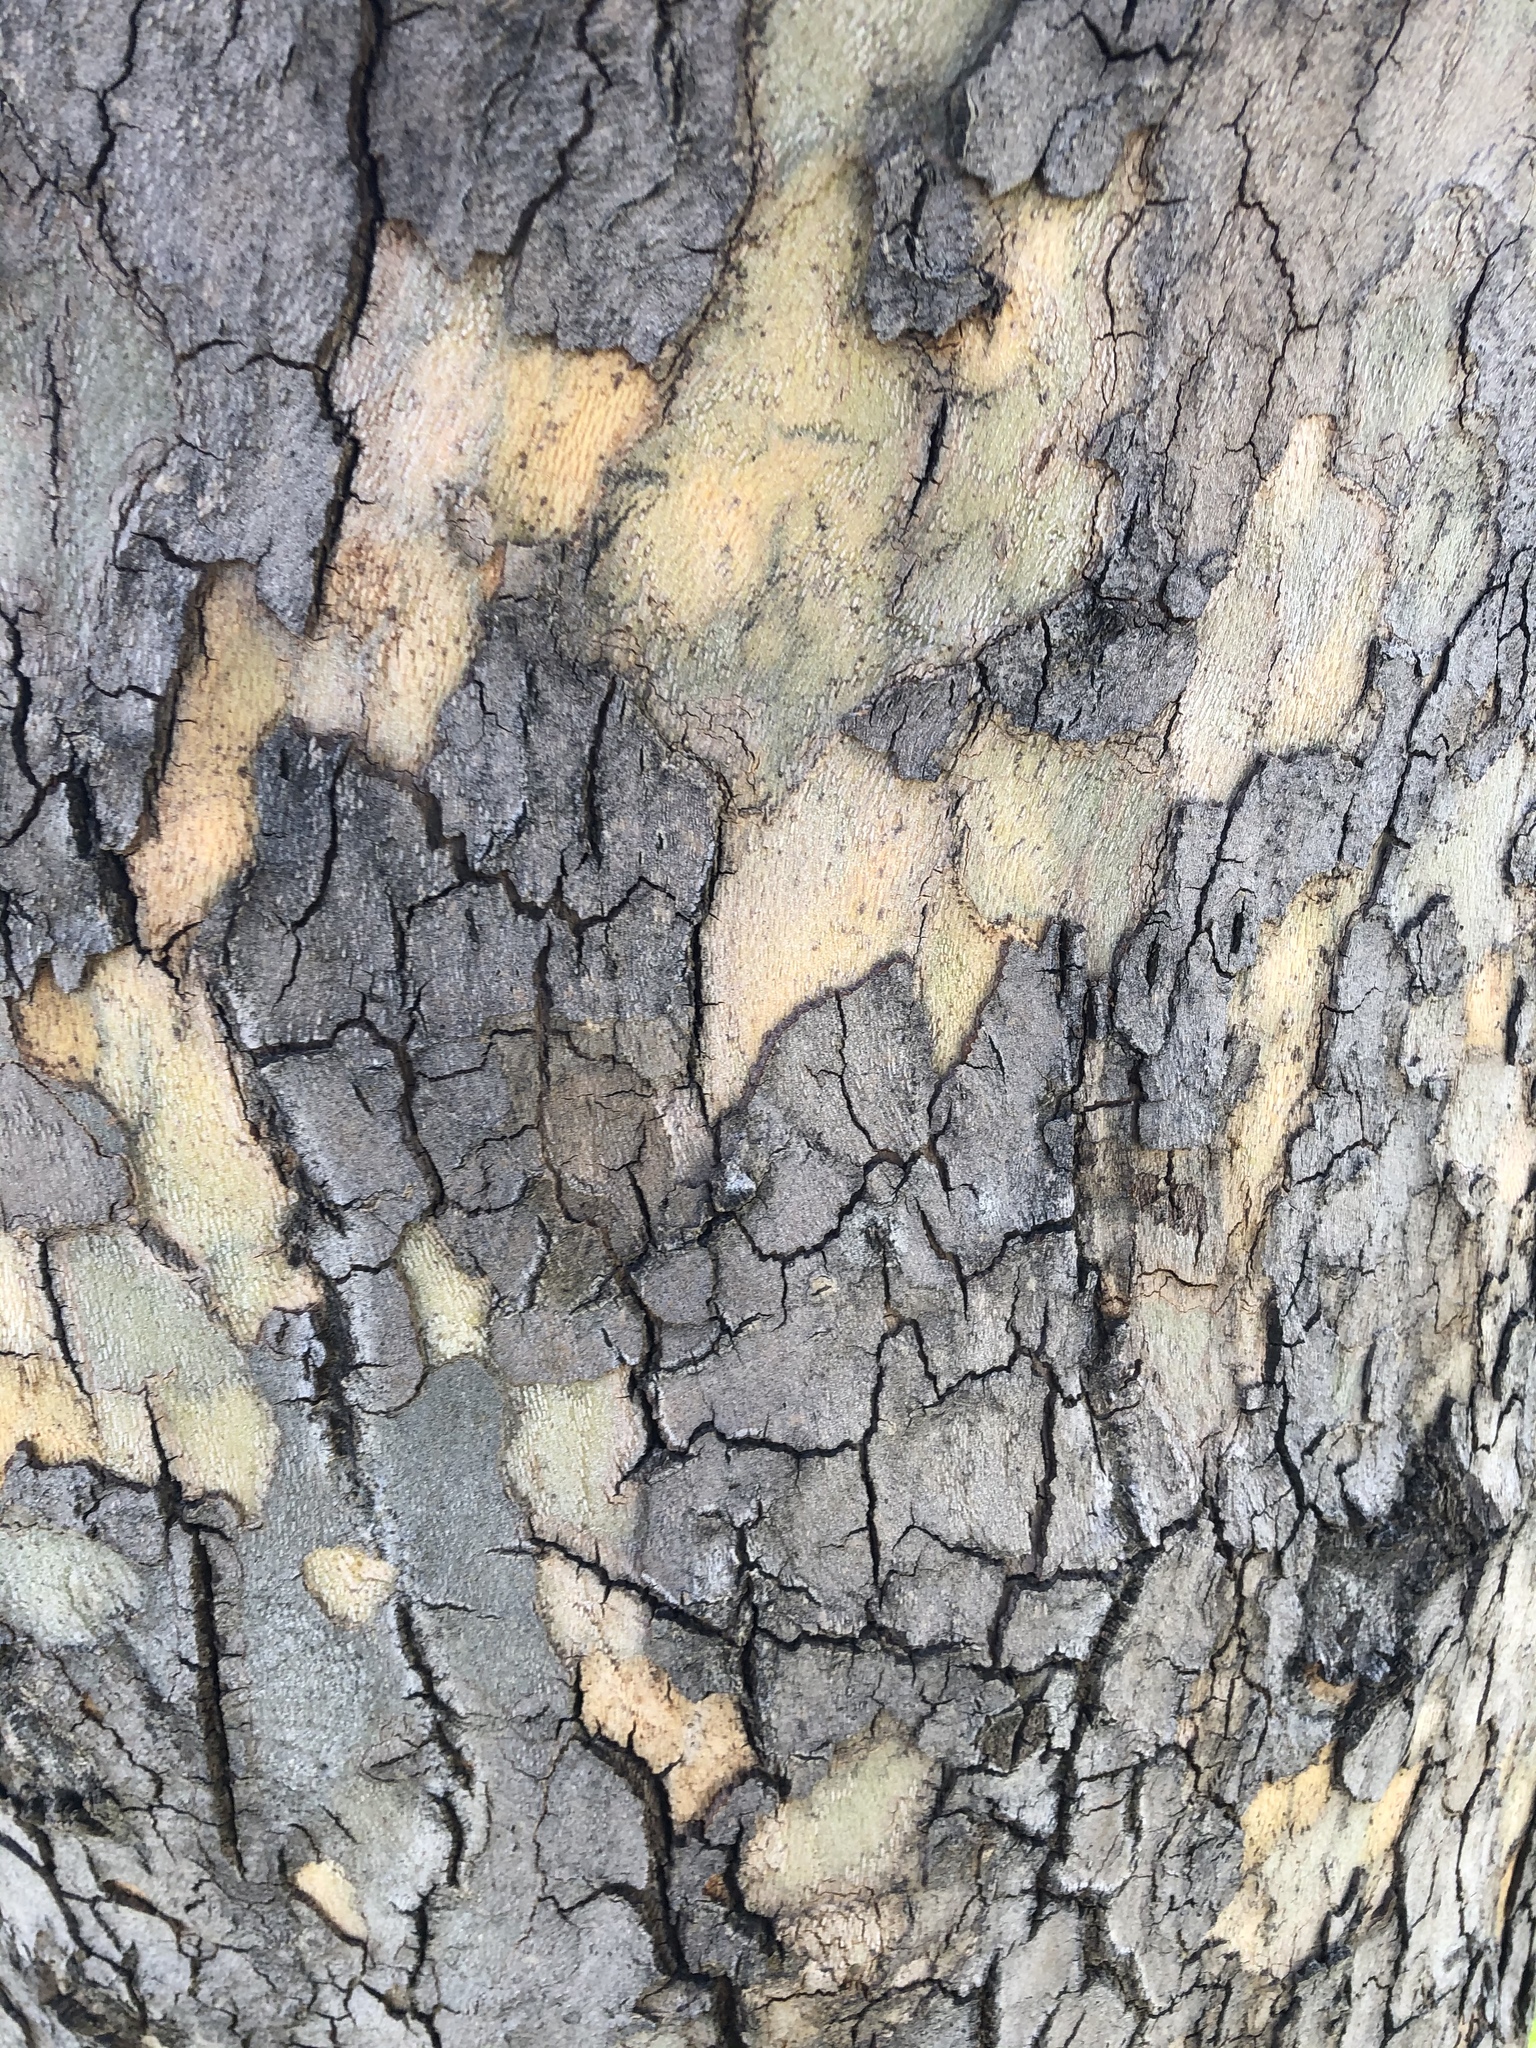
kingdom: Plantae
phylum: Tracheophyta
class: Magnoliopsida
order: Proteales
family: Platanaceae
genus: Platanus
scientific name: Platanus occidentalis
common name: American sycamore
